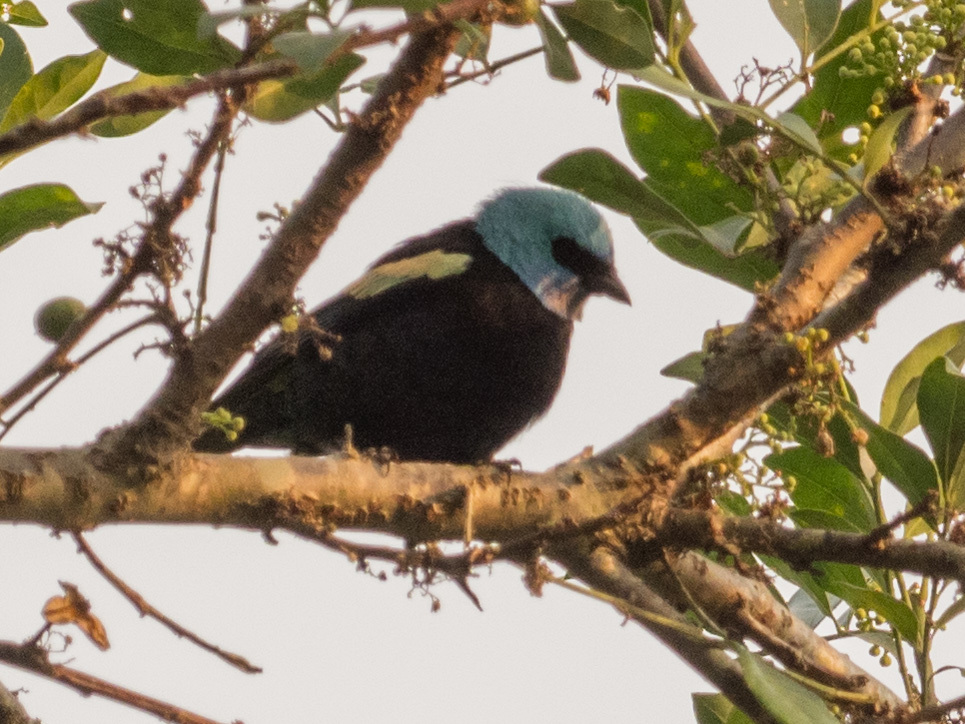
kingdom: Animalia
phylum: Chordata
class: Aves
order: Passeriformes
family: Thraupidae
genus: Stilpnia
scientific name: Stilpnia cyanicollis
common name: Blue-necked tanager
